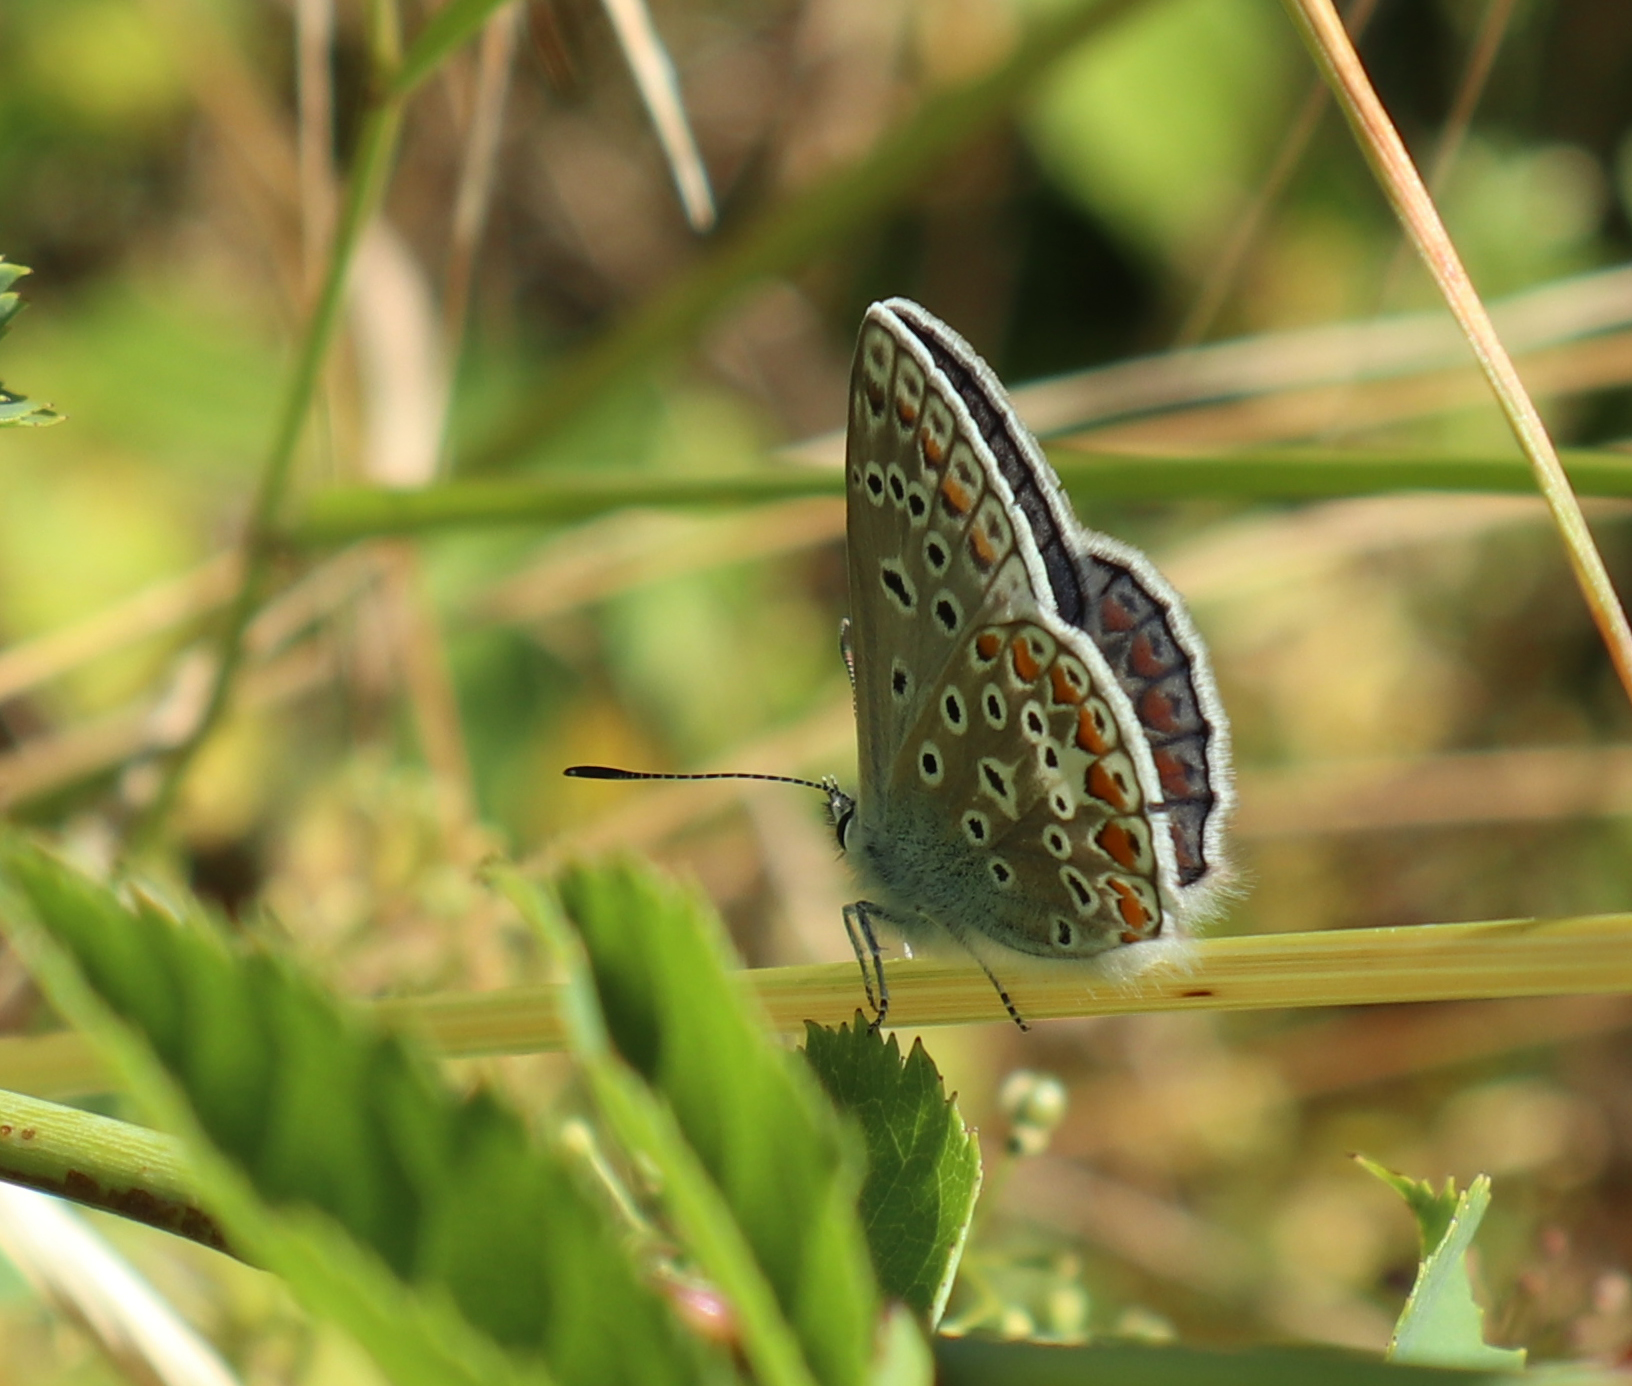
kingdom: Animalia
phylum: Arthropoda
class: Insecta
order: Lepidoptera
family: Lycaenidae
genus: Polyommatus
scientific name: Polyommatus icarus
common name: Common blue
